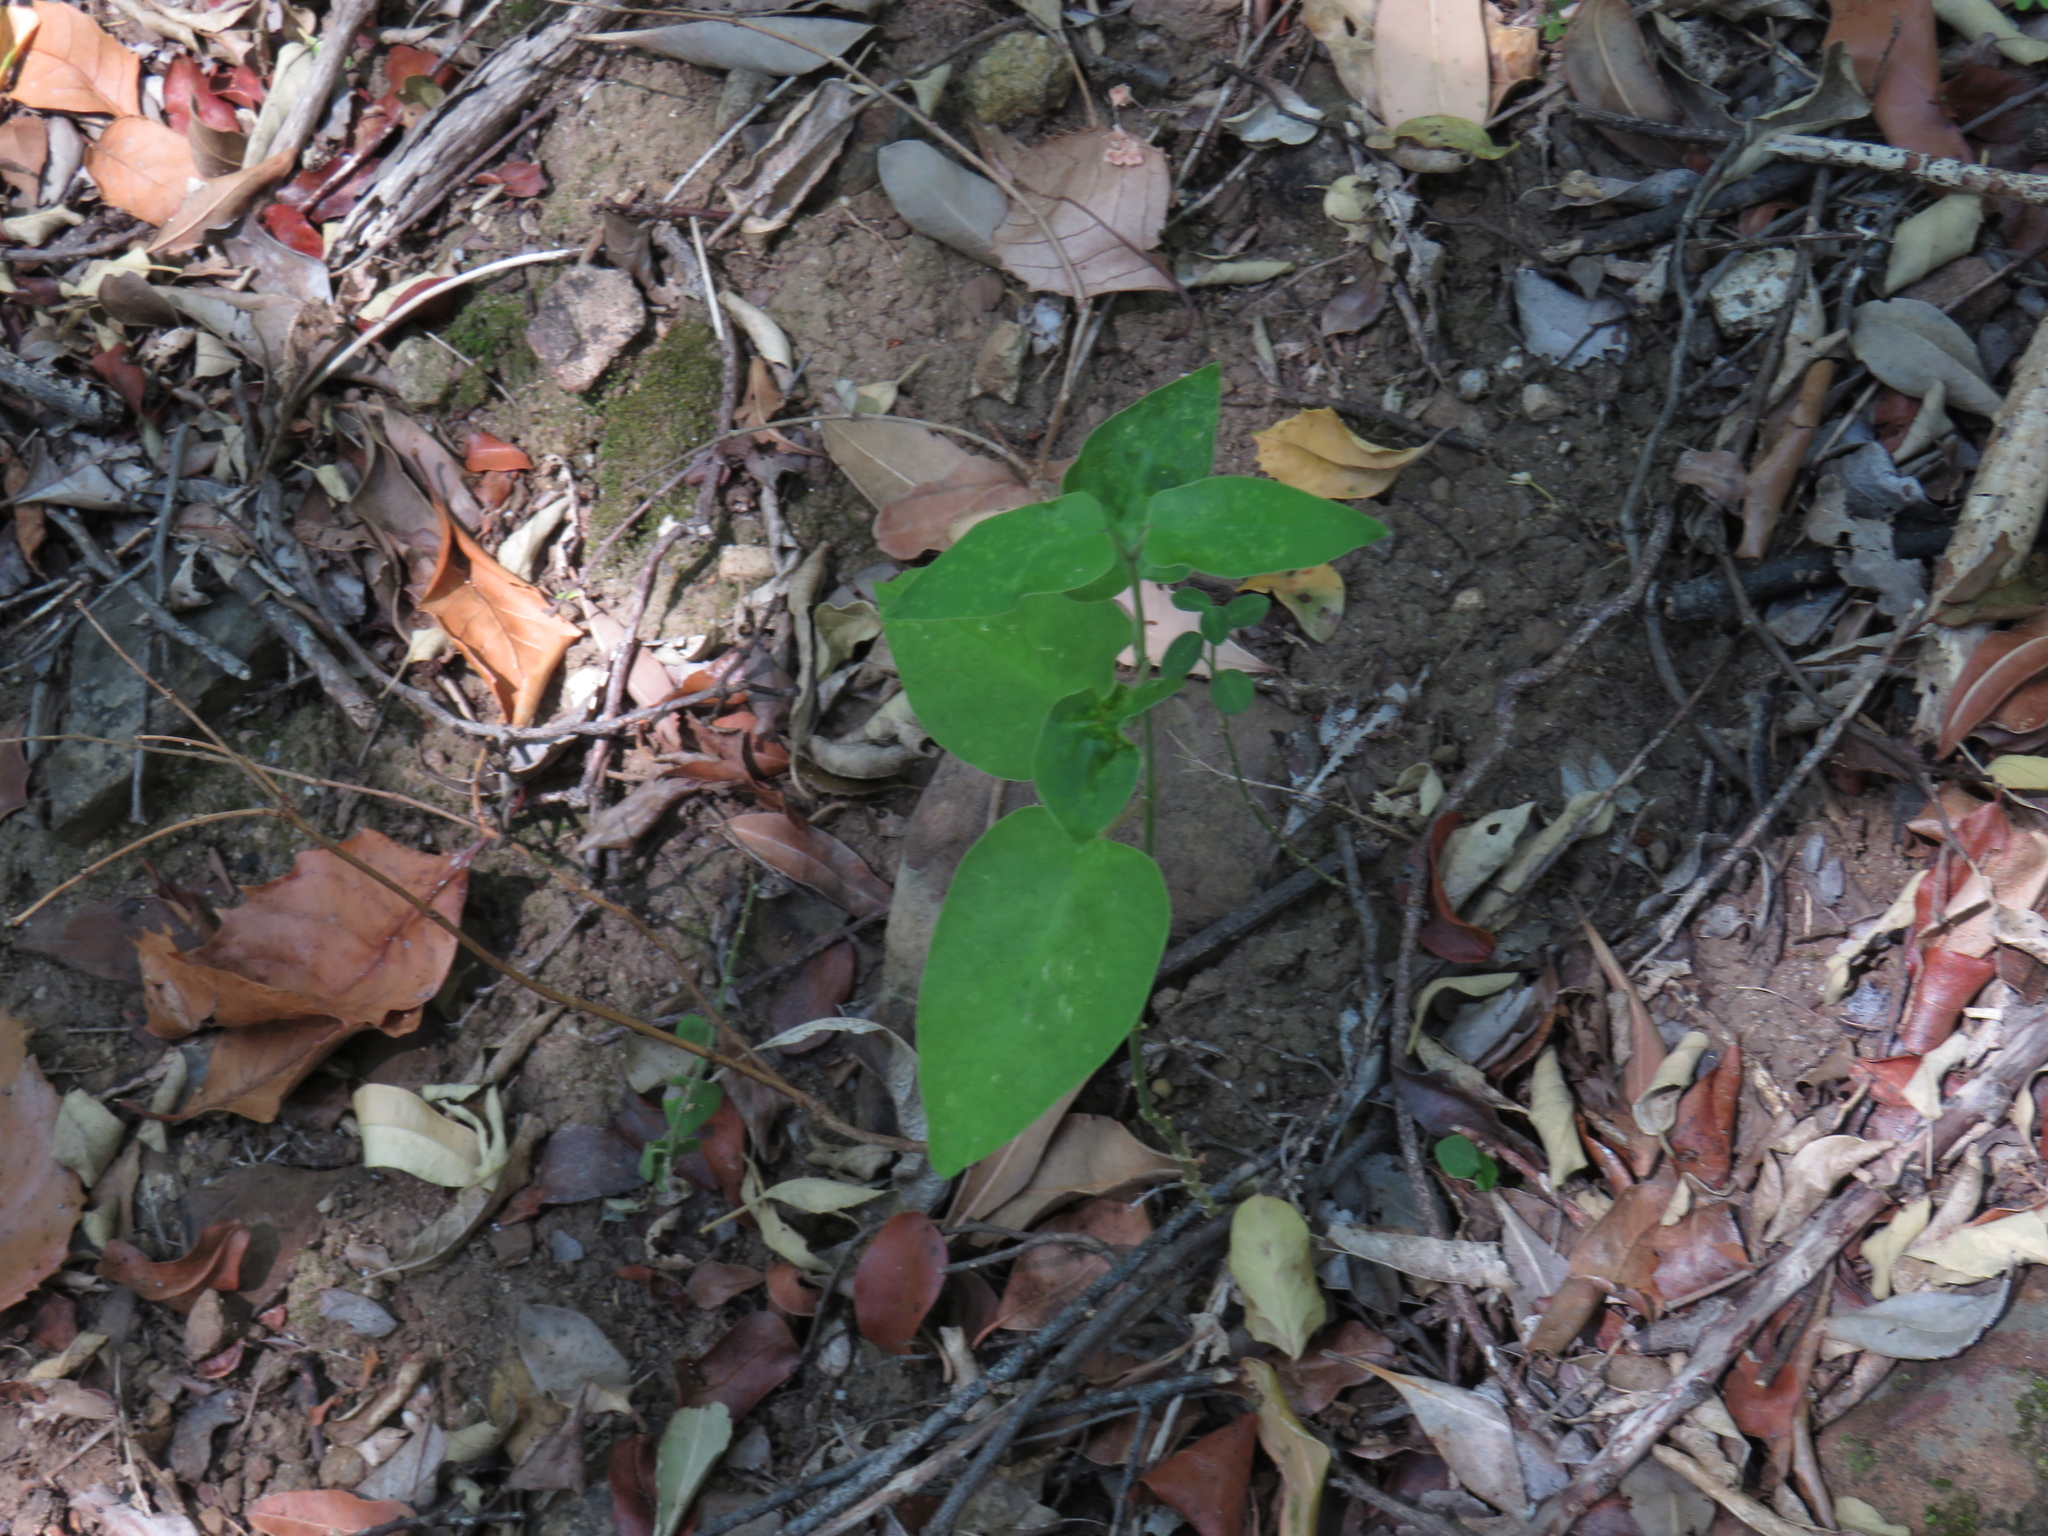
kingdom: Plantae
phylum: Tracheophyta
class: Magnoliopsida
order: Gentianales
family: Apocynaceae
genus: Araujia
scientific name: Araujia sericifera
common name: White bladderflower
